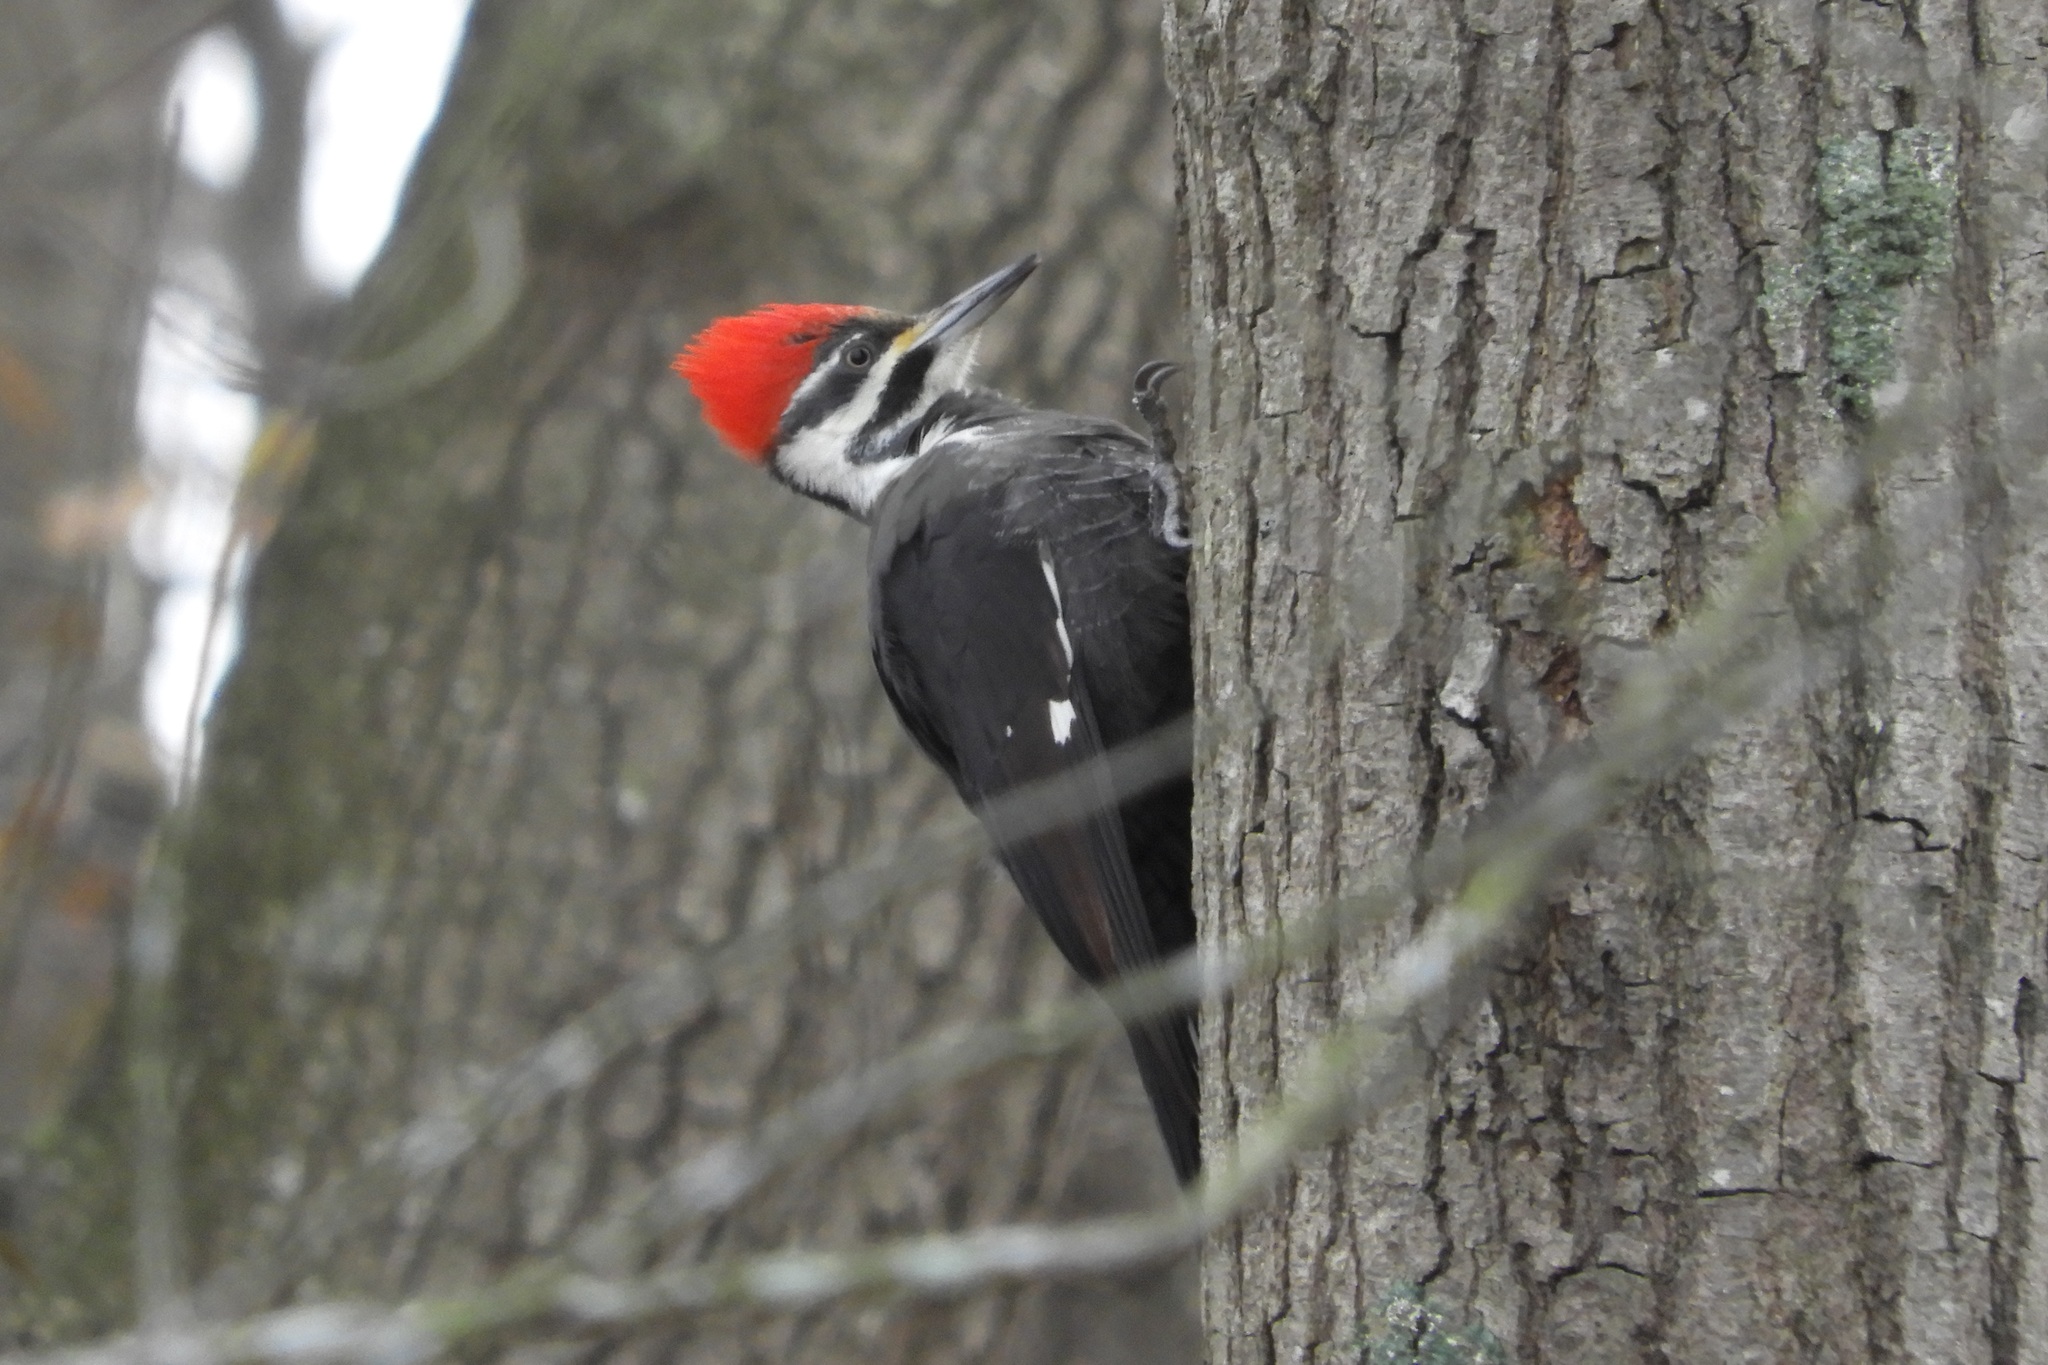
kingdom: Animalia
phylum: Chordata
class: Aves
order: Piciformes
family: Picidae
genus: Dryocopus
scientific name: Dryocopus pileatus
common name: Pileated woodpecker
